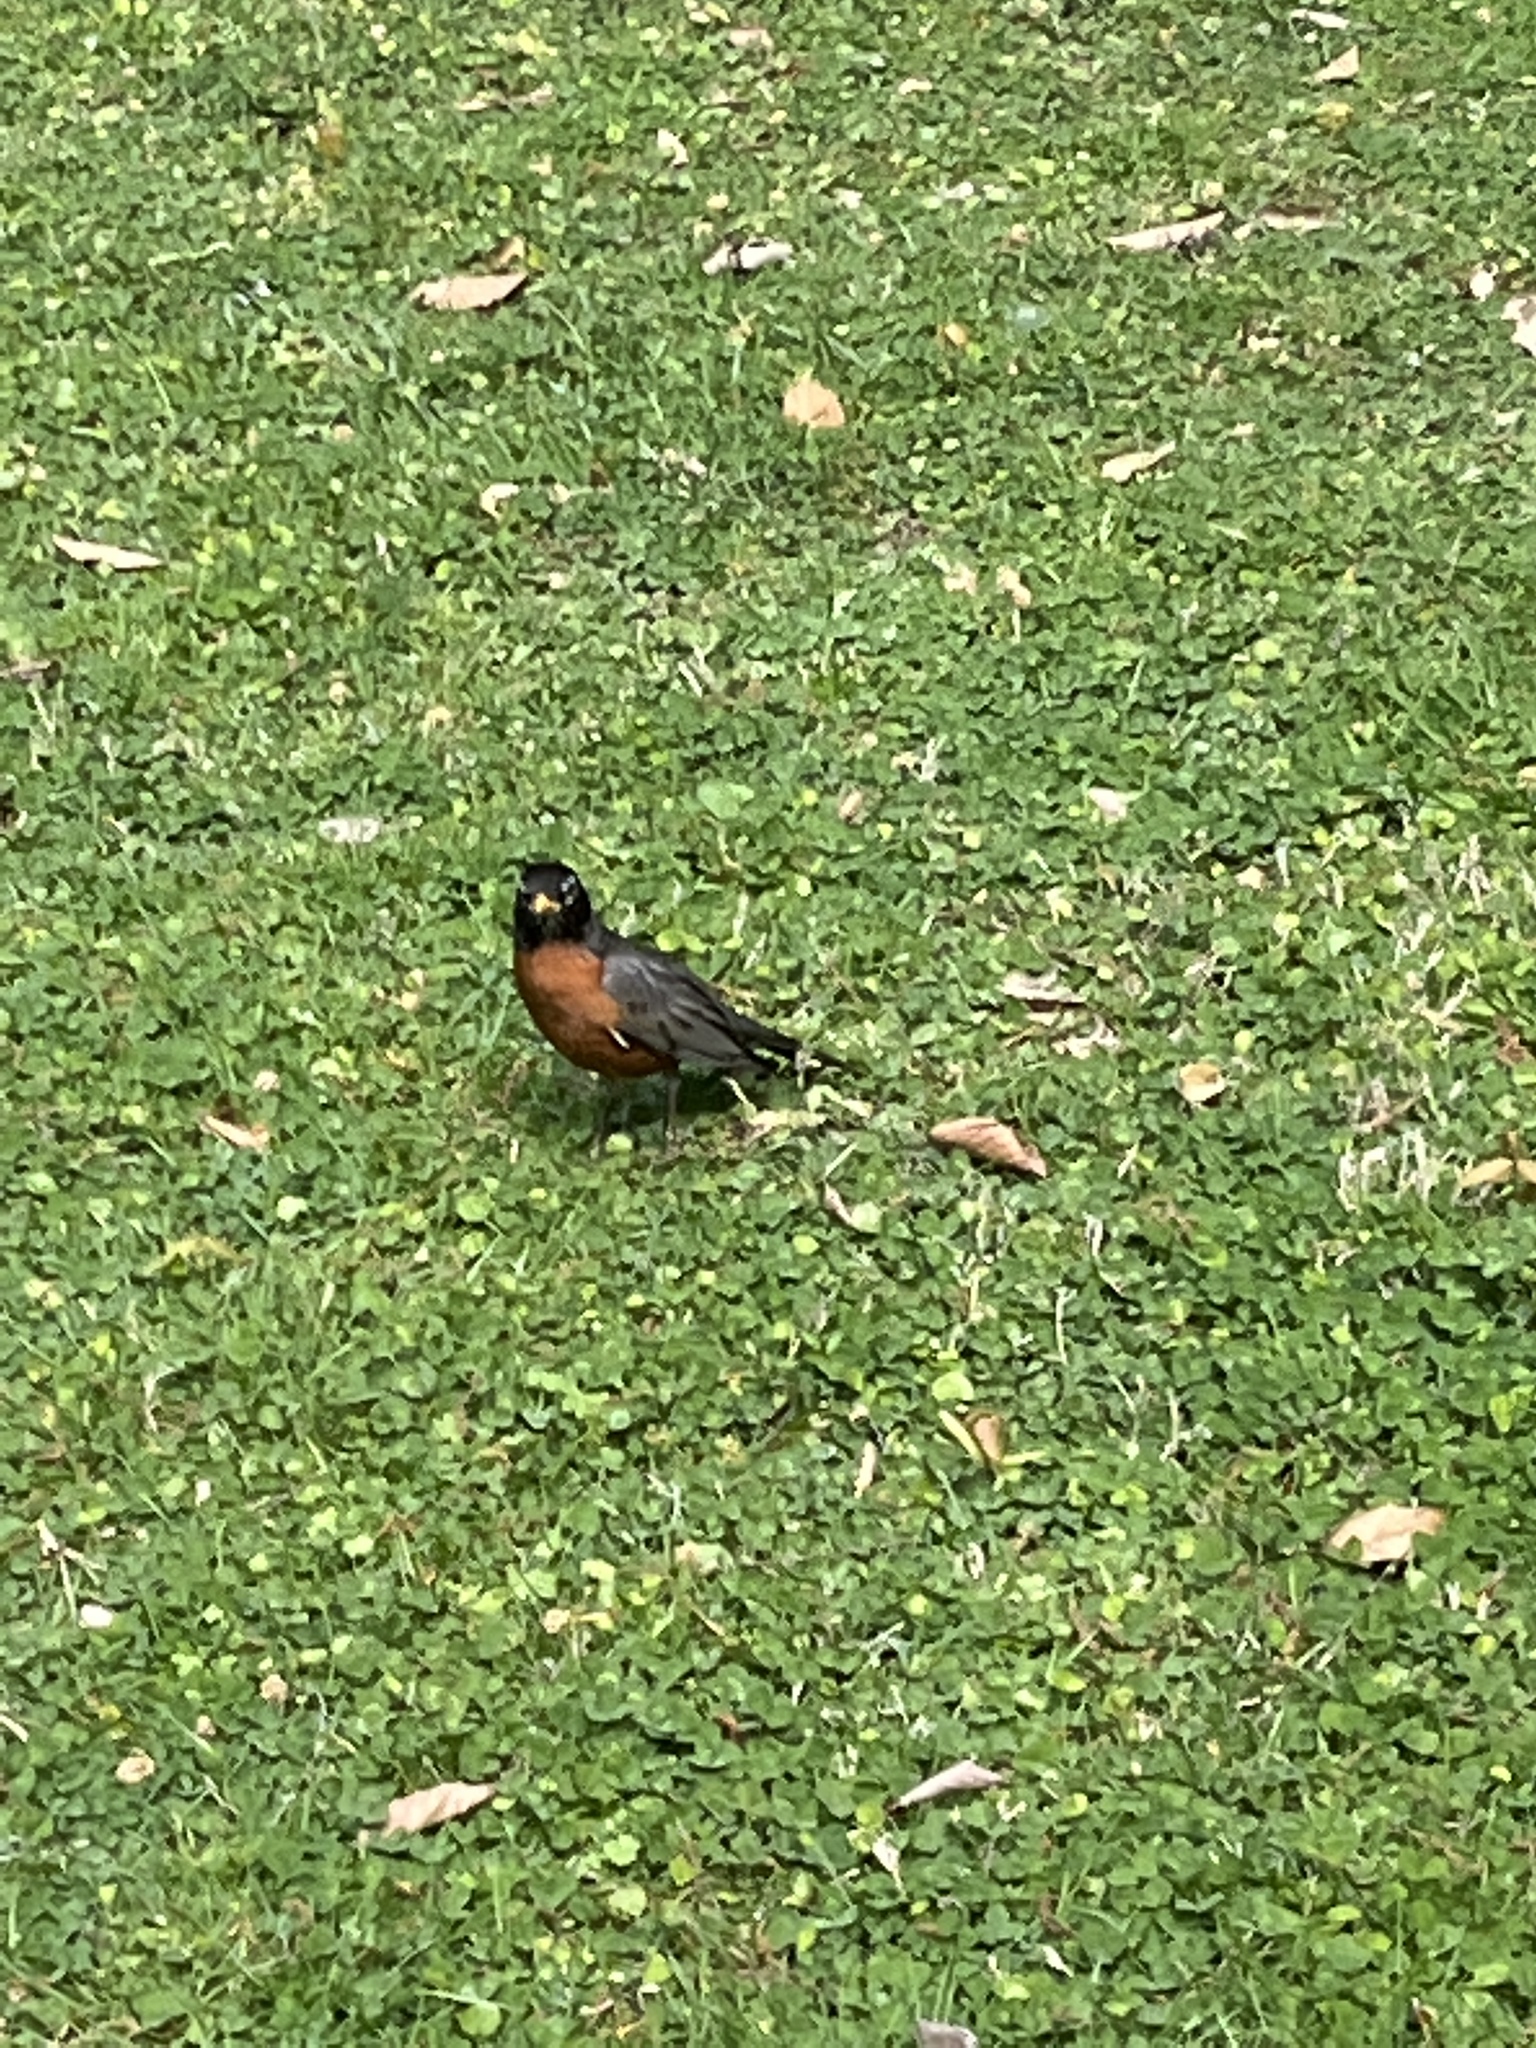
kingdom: Animalia
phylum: Chordata
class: Aves
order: Passeriformes
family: Turdidae
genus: Turdus
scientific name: Turdus migratorius
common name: American robin
